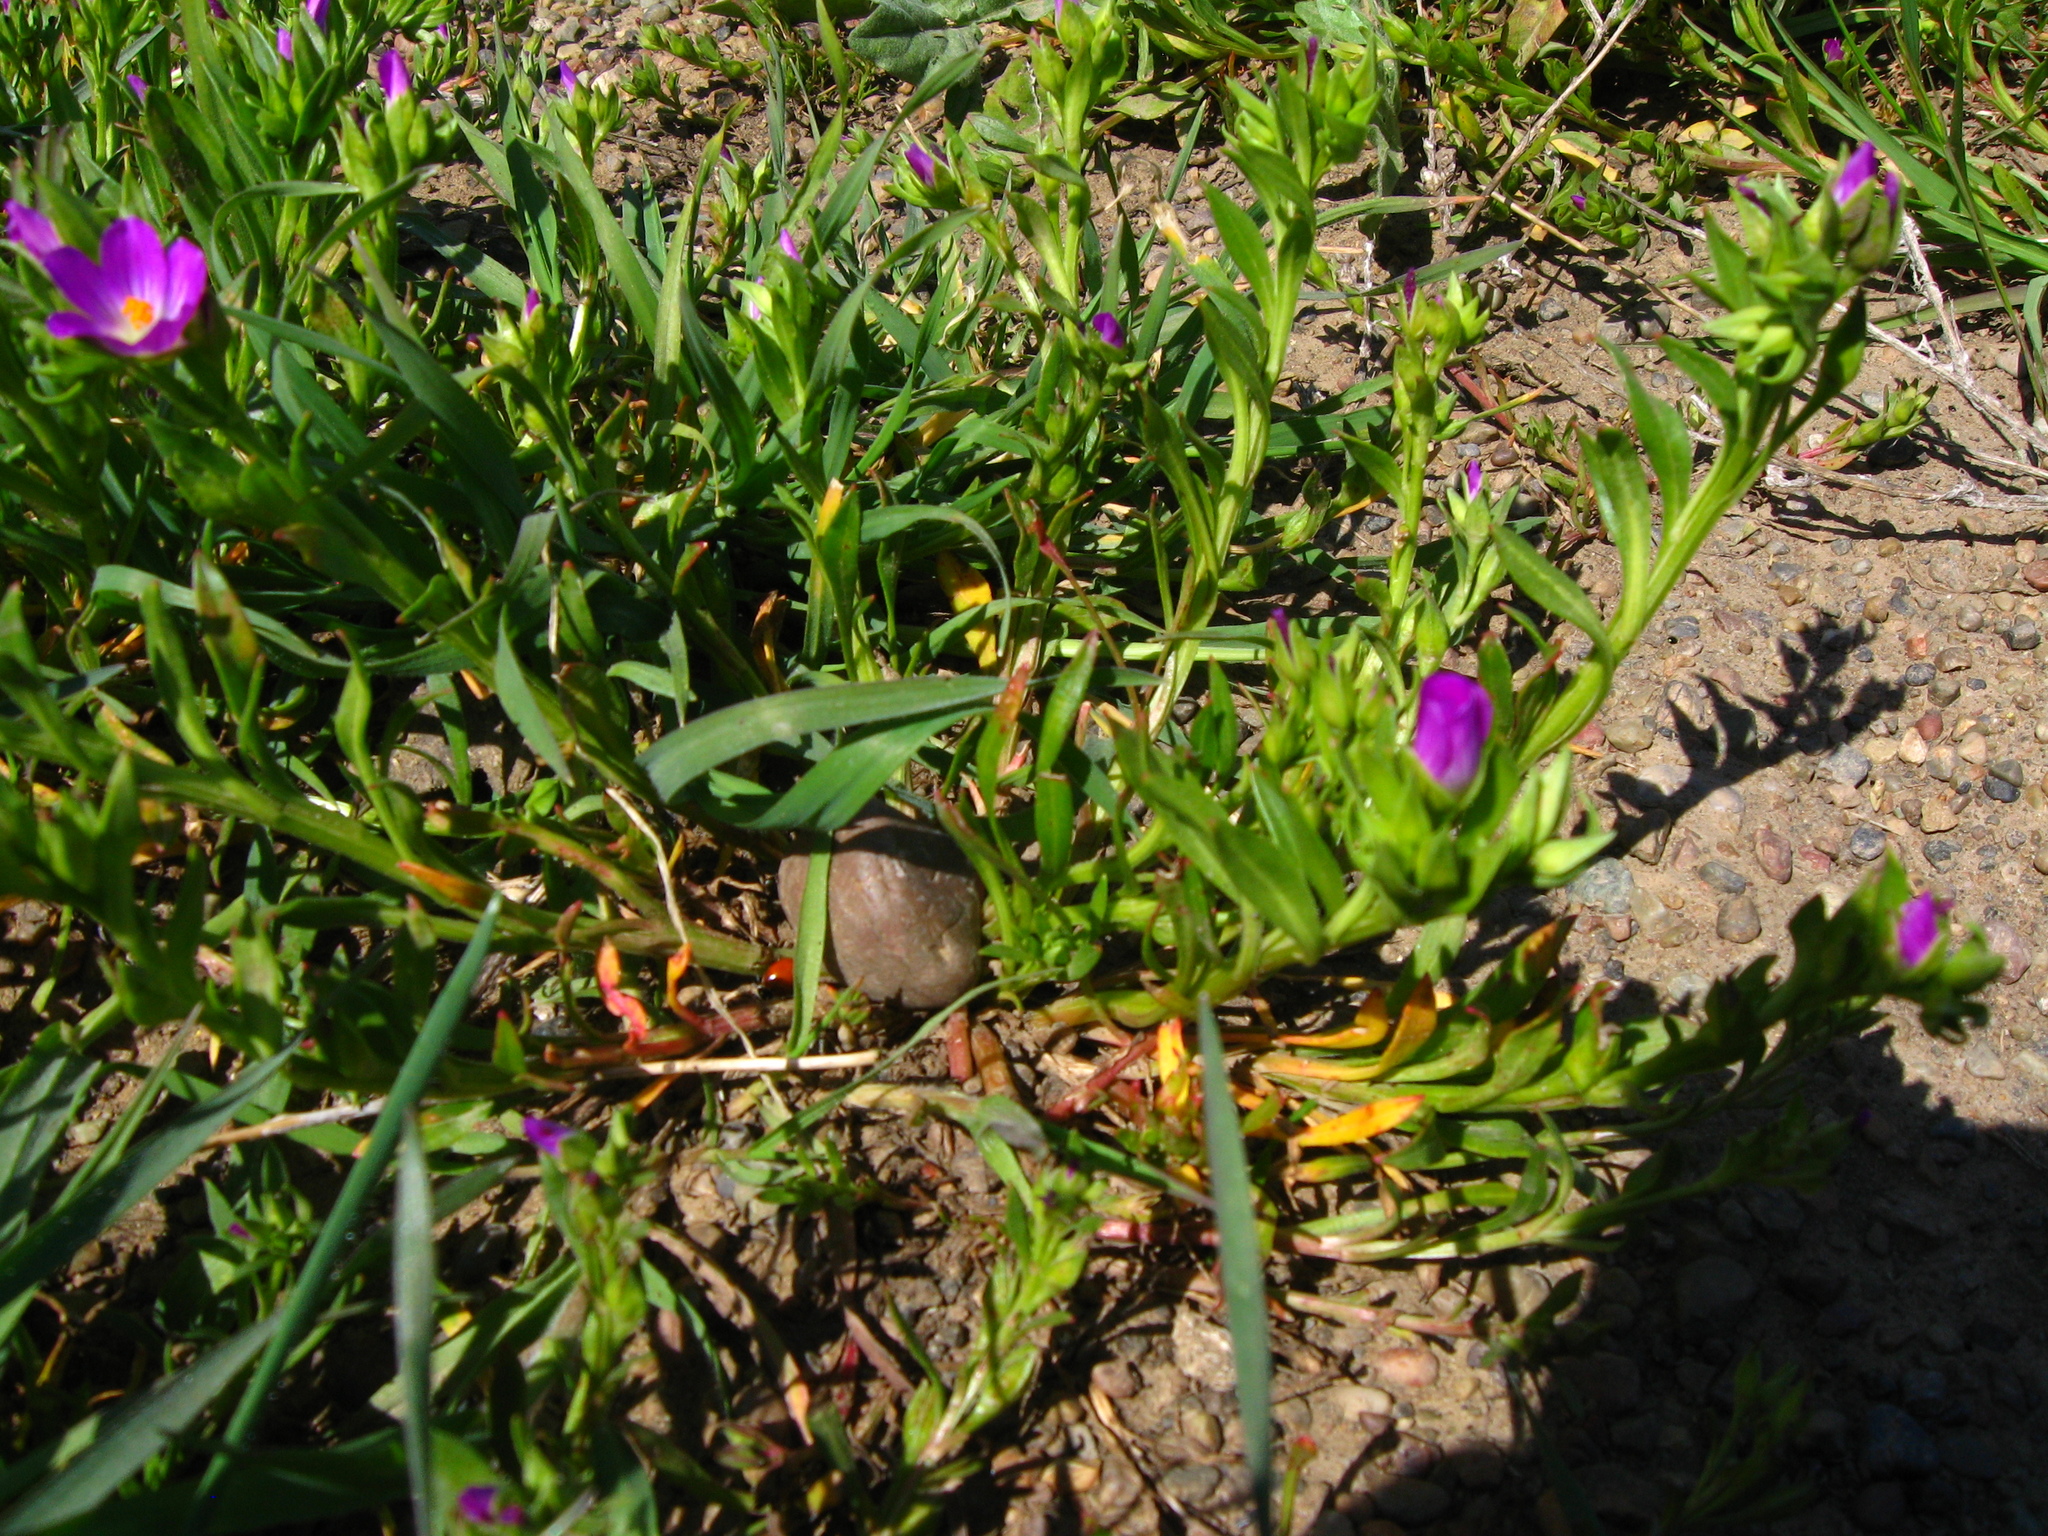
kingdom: Plantae
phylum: Tracheophyta
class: Magnoliopsida
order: Caryophyllales
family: Montiaceae
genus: Calandrinia
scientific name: Calandrinia menziesii
